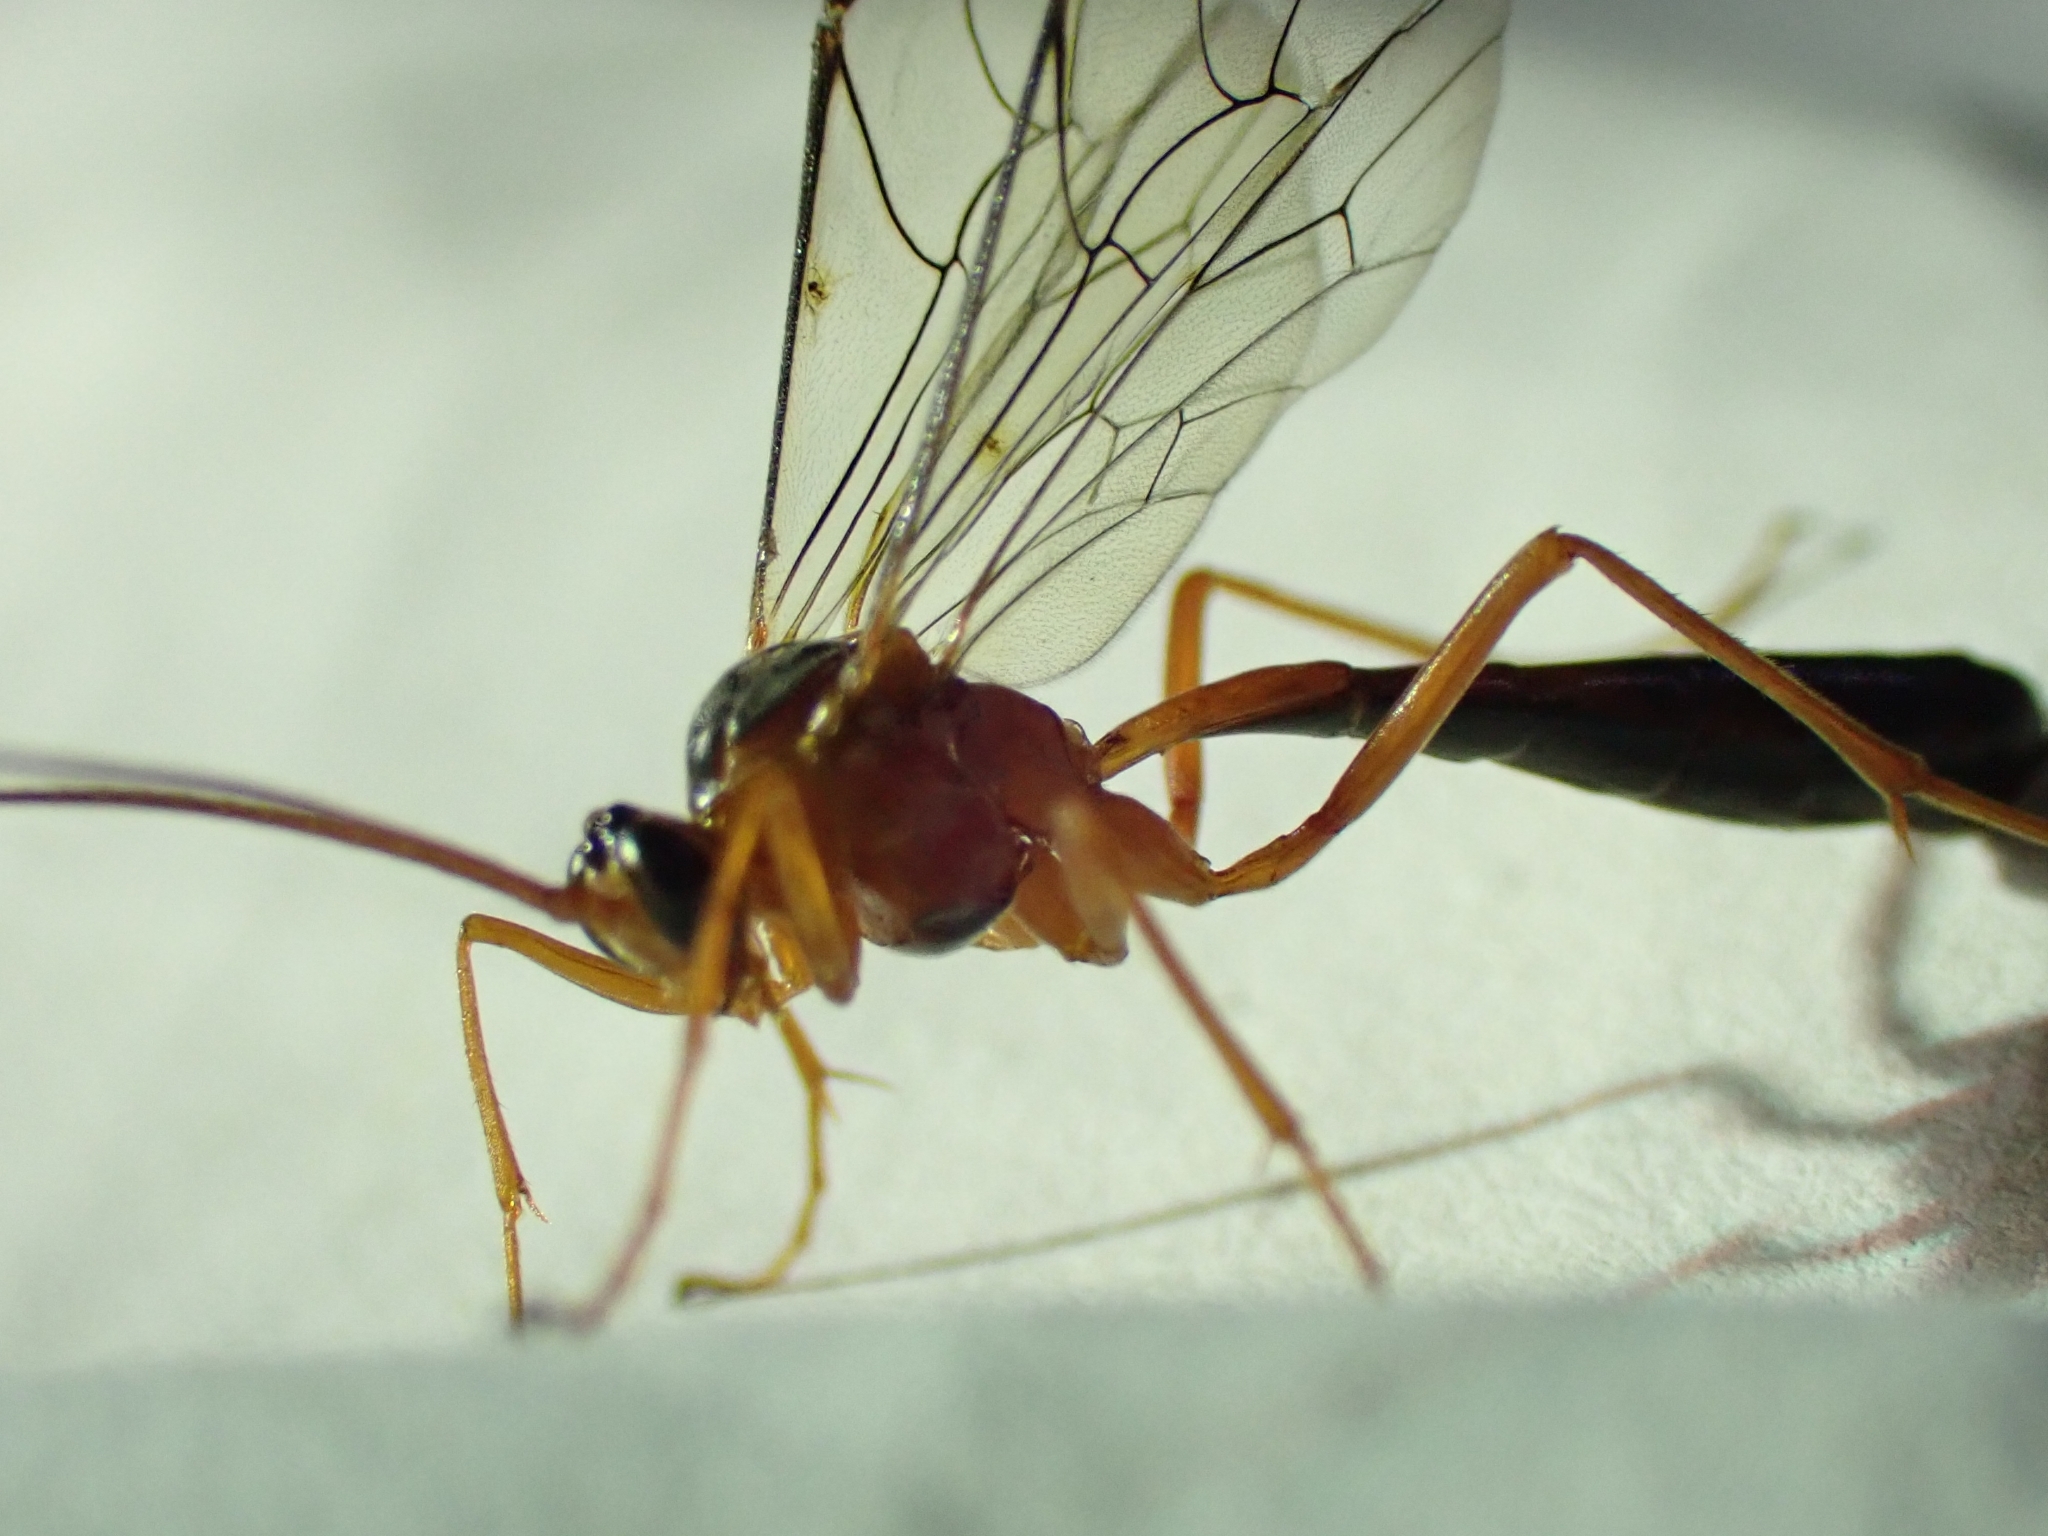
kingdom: Animalia
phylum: Arthropoda
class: Insecta
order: Hymenoptera
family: Ichneumonidae
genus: Netelia
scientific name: Netelia ephippiata
